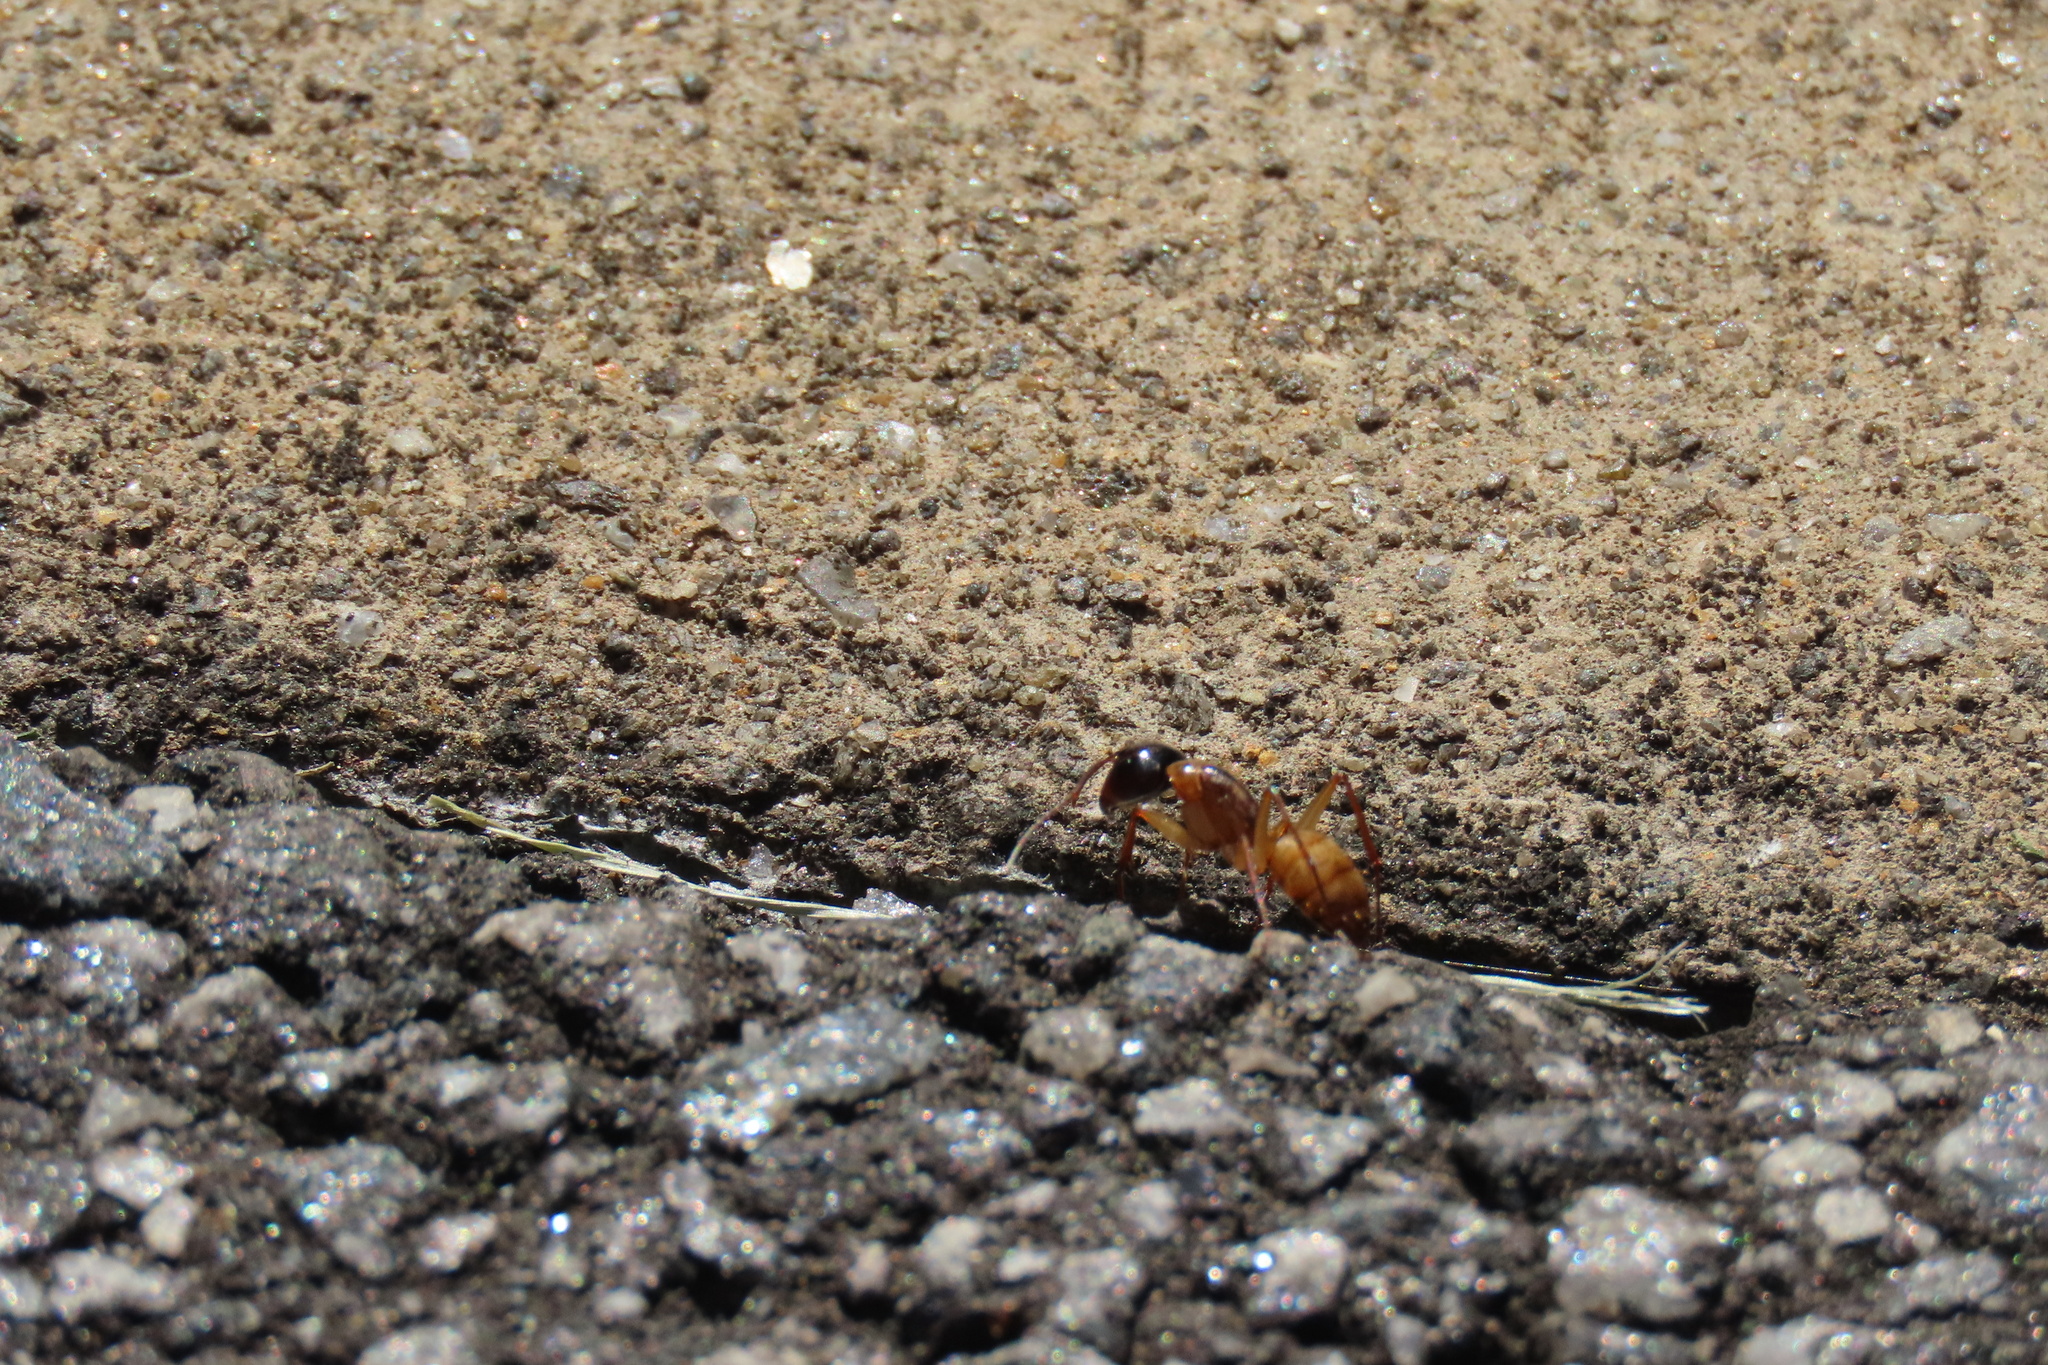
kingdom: Animalia
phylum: Arthropoda
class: Insecta
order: Hymenoptera
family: Formicidae
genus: Camponotus
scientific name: Camponotus americanus
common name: American carpenter ant
